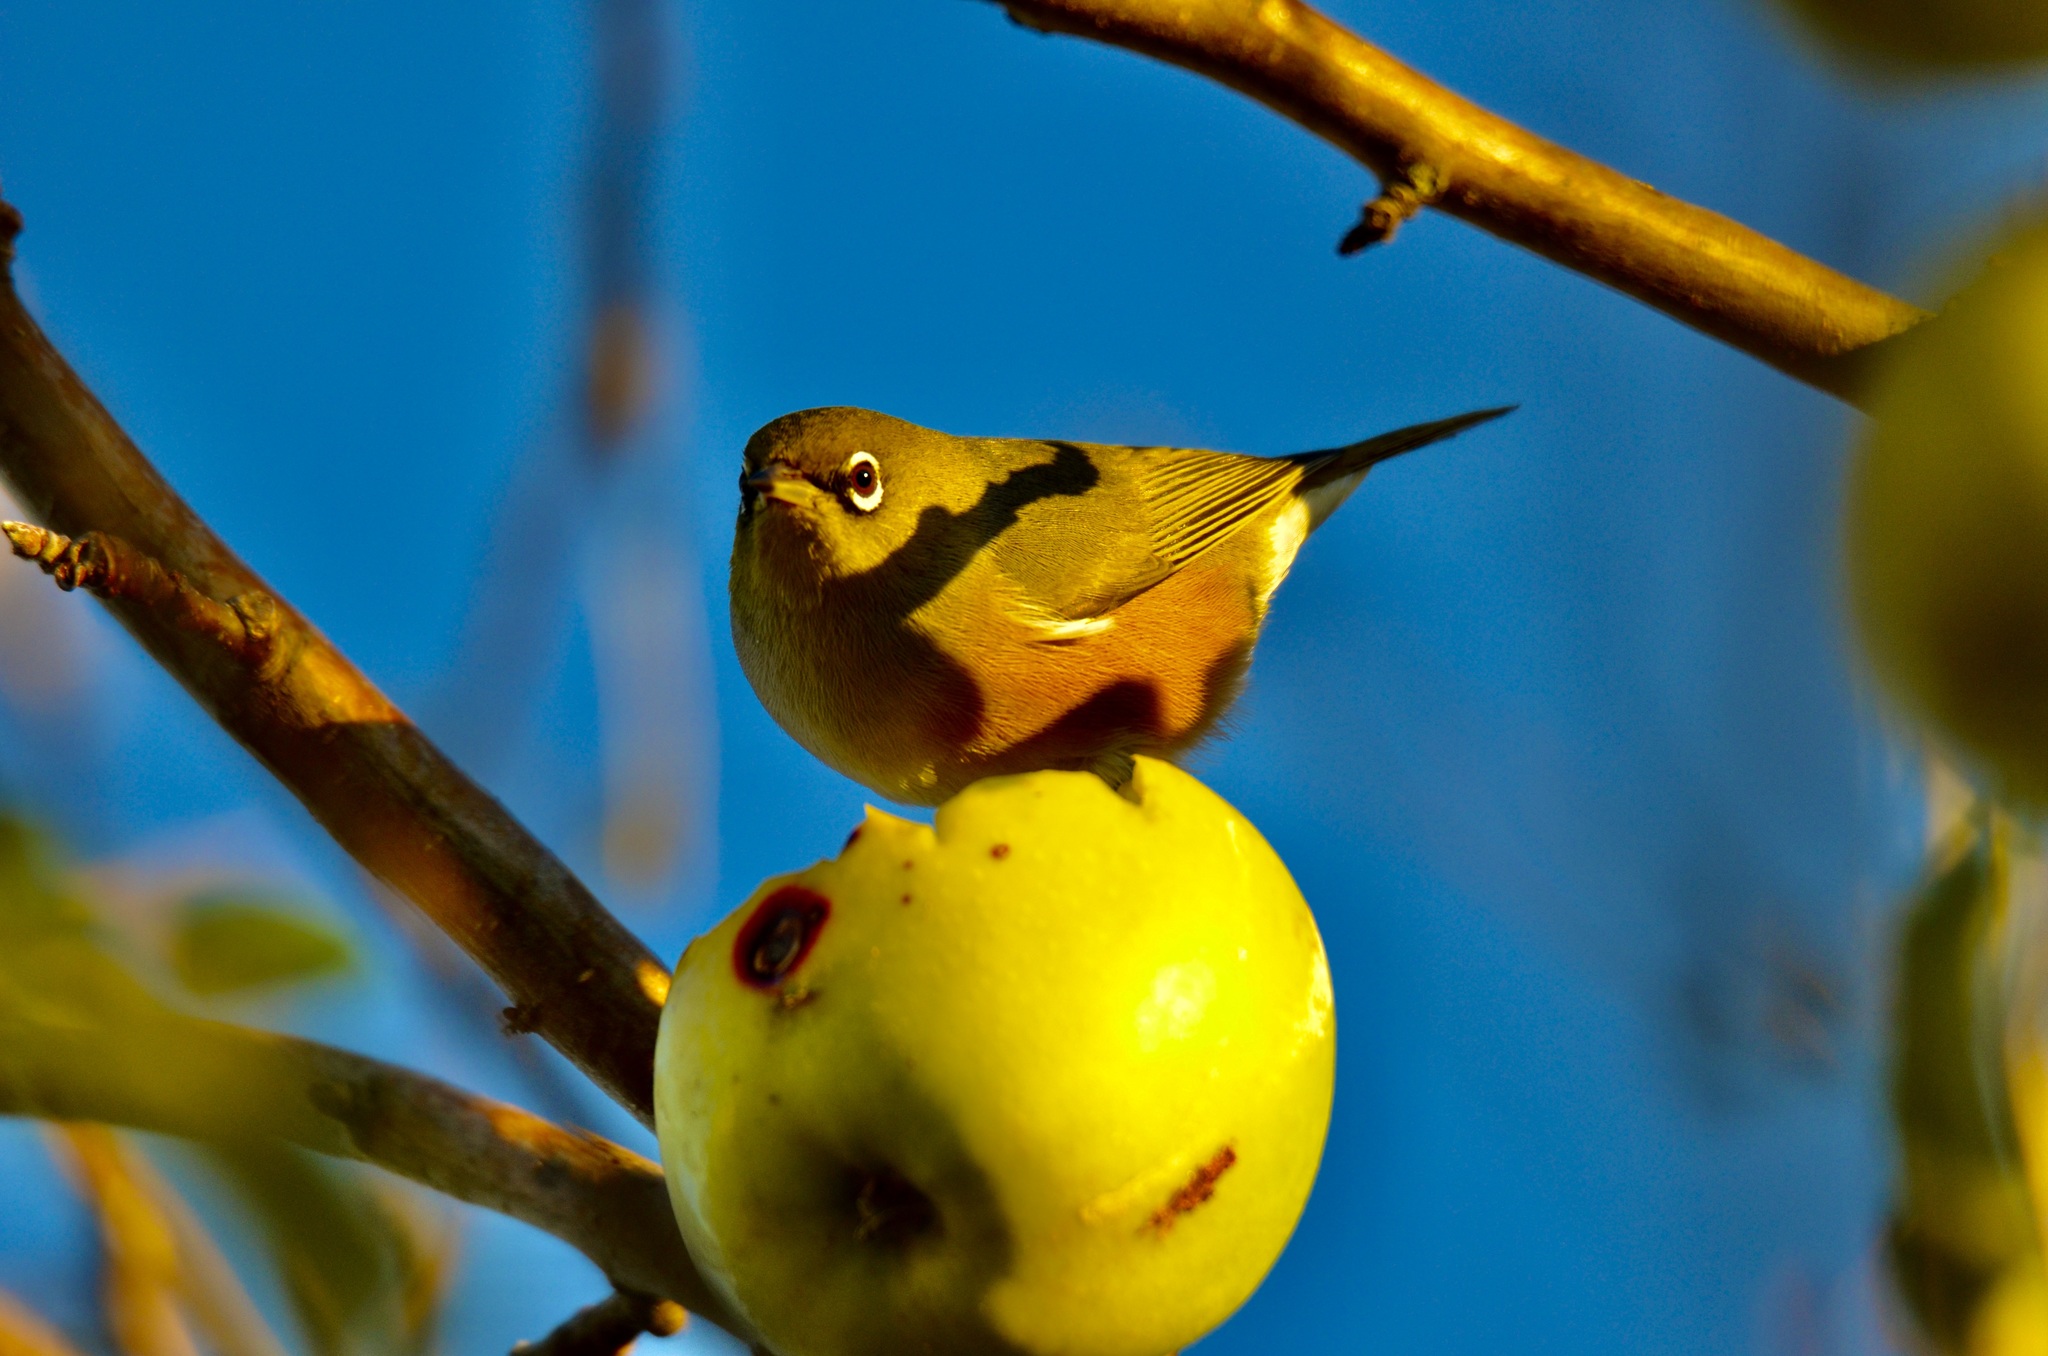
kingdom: Animalia
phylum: Chordata
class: Aves
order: Passeriformes
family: Zosteropidae
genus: Zosterops
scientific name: Zosterops lateralis
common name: Silvereye
